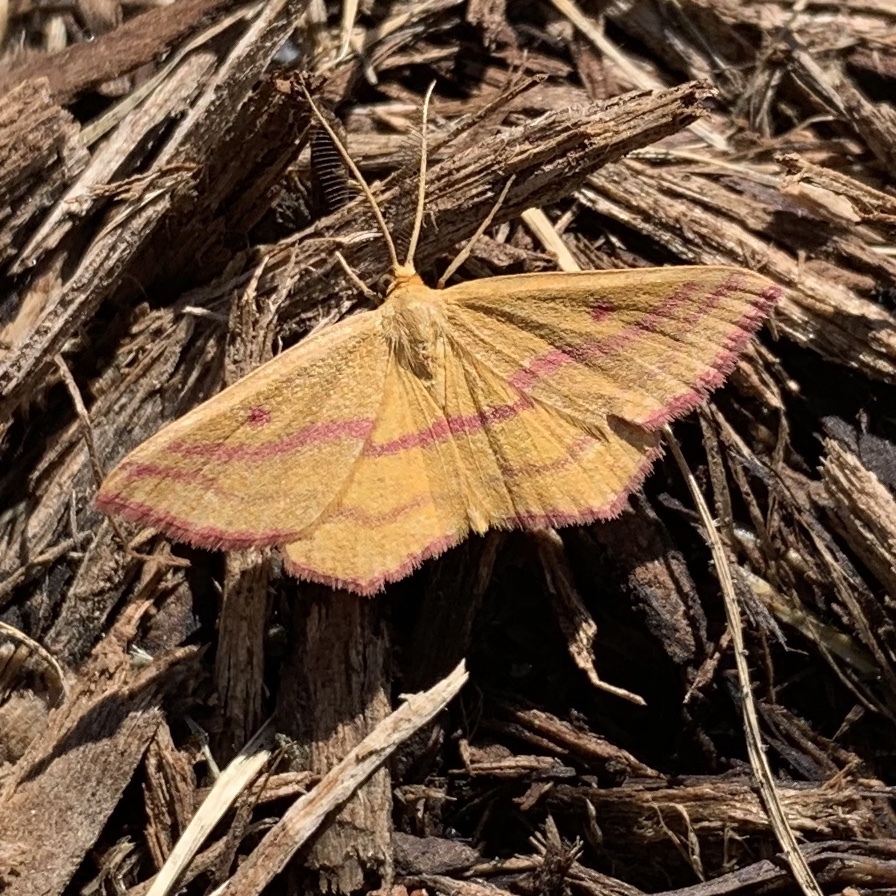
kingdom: Animalia
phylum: Arthropoda
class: Insecta
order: Lepidoptera
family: Geometridae
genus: Haematopis
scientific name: Haematopis grataria
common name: Chickweed geometer
